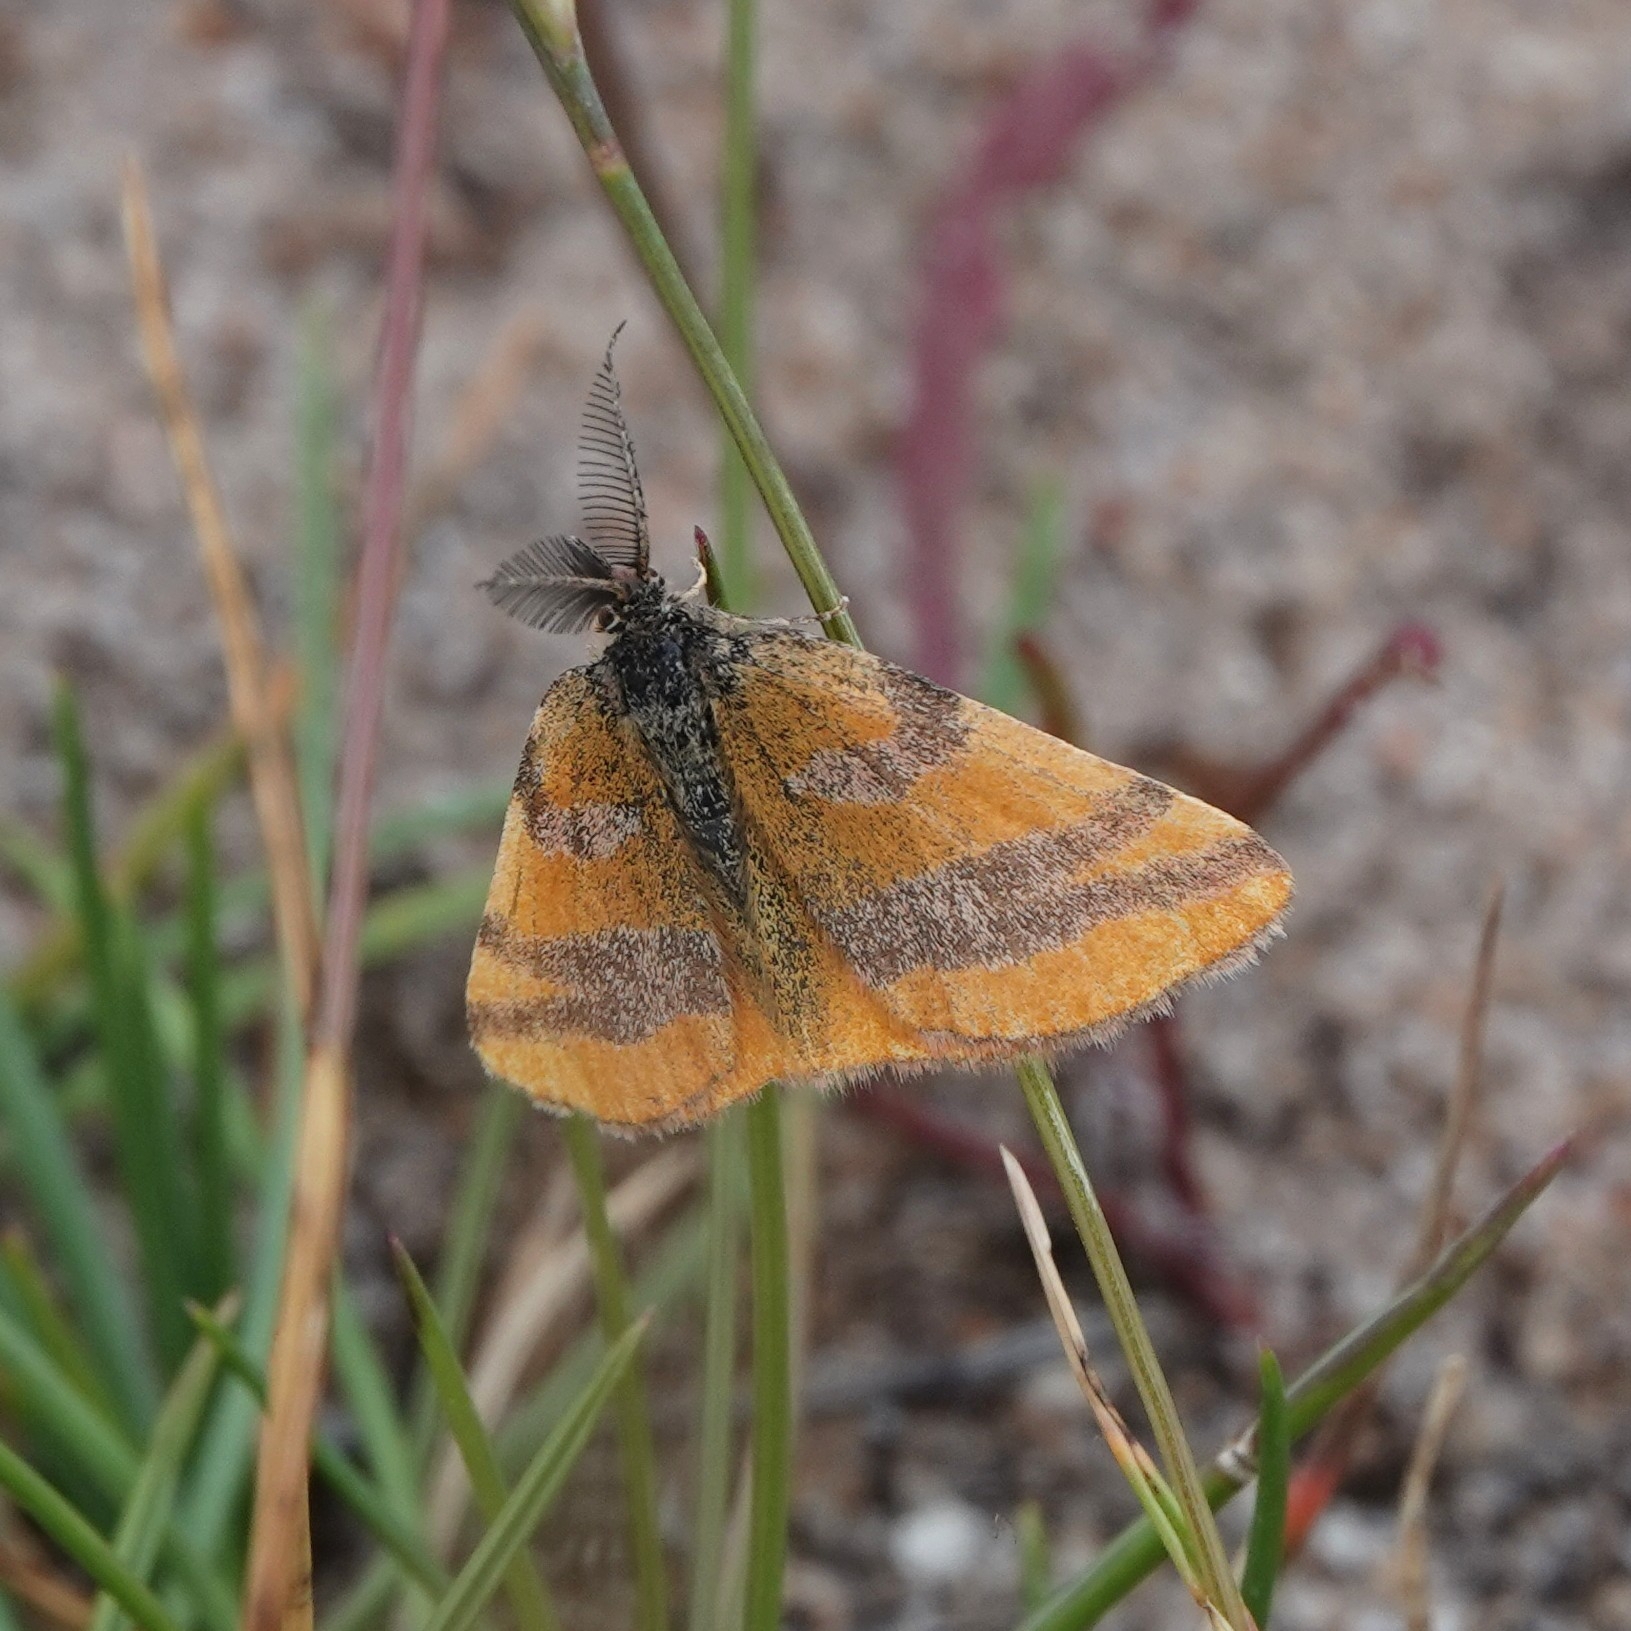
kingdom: Animalia
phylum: Arthropoda
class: Insecta
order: Lepidoptera
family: Geometridae
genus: Lythria
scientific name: Lythria cruentaria
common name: Purple-barred yellow
